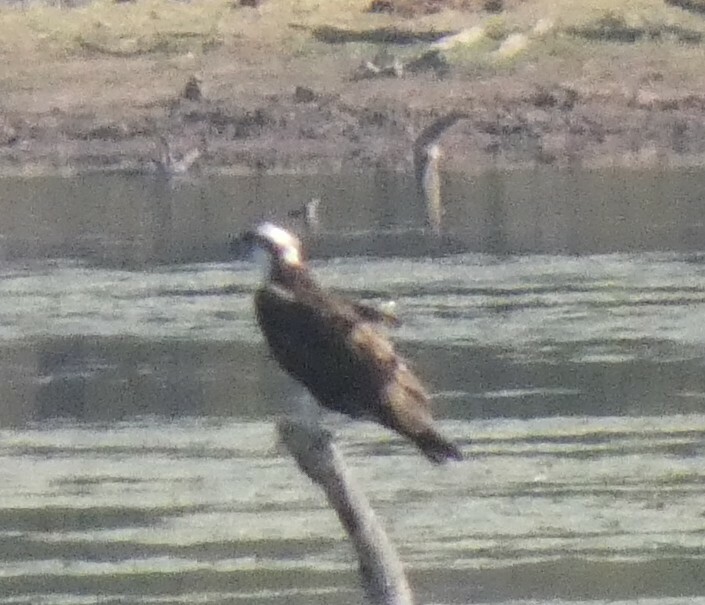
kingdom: Animalia
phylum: Chordata
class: Aves
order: Accipitriformes
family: Pandionidae
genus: Pandion
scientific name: Pandion haliaetus
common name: Osprey
